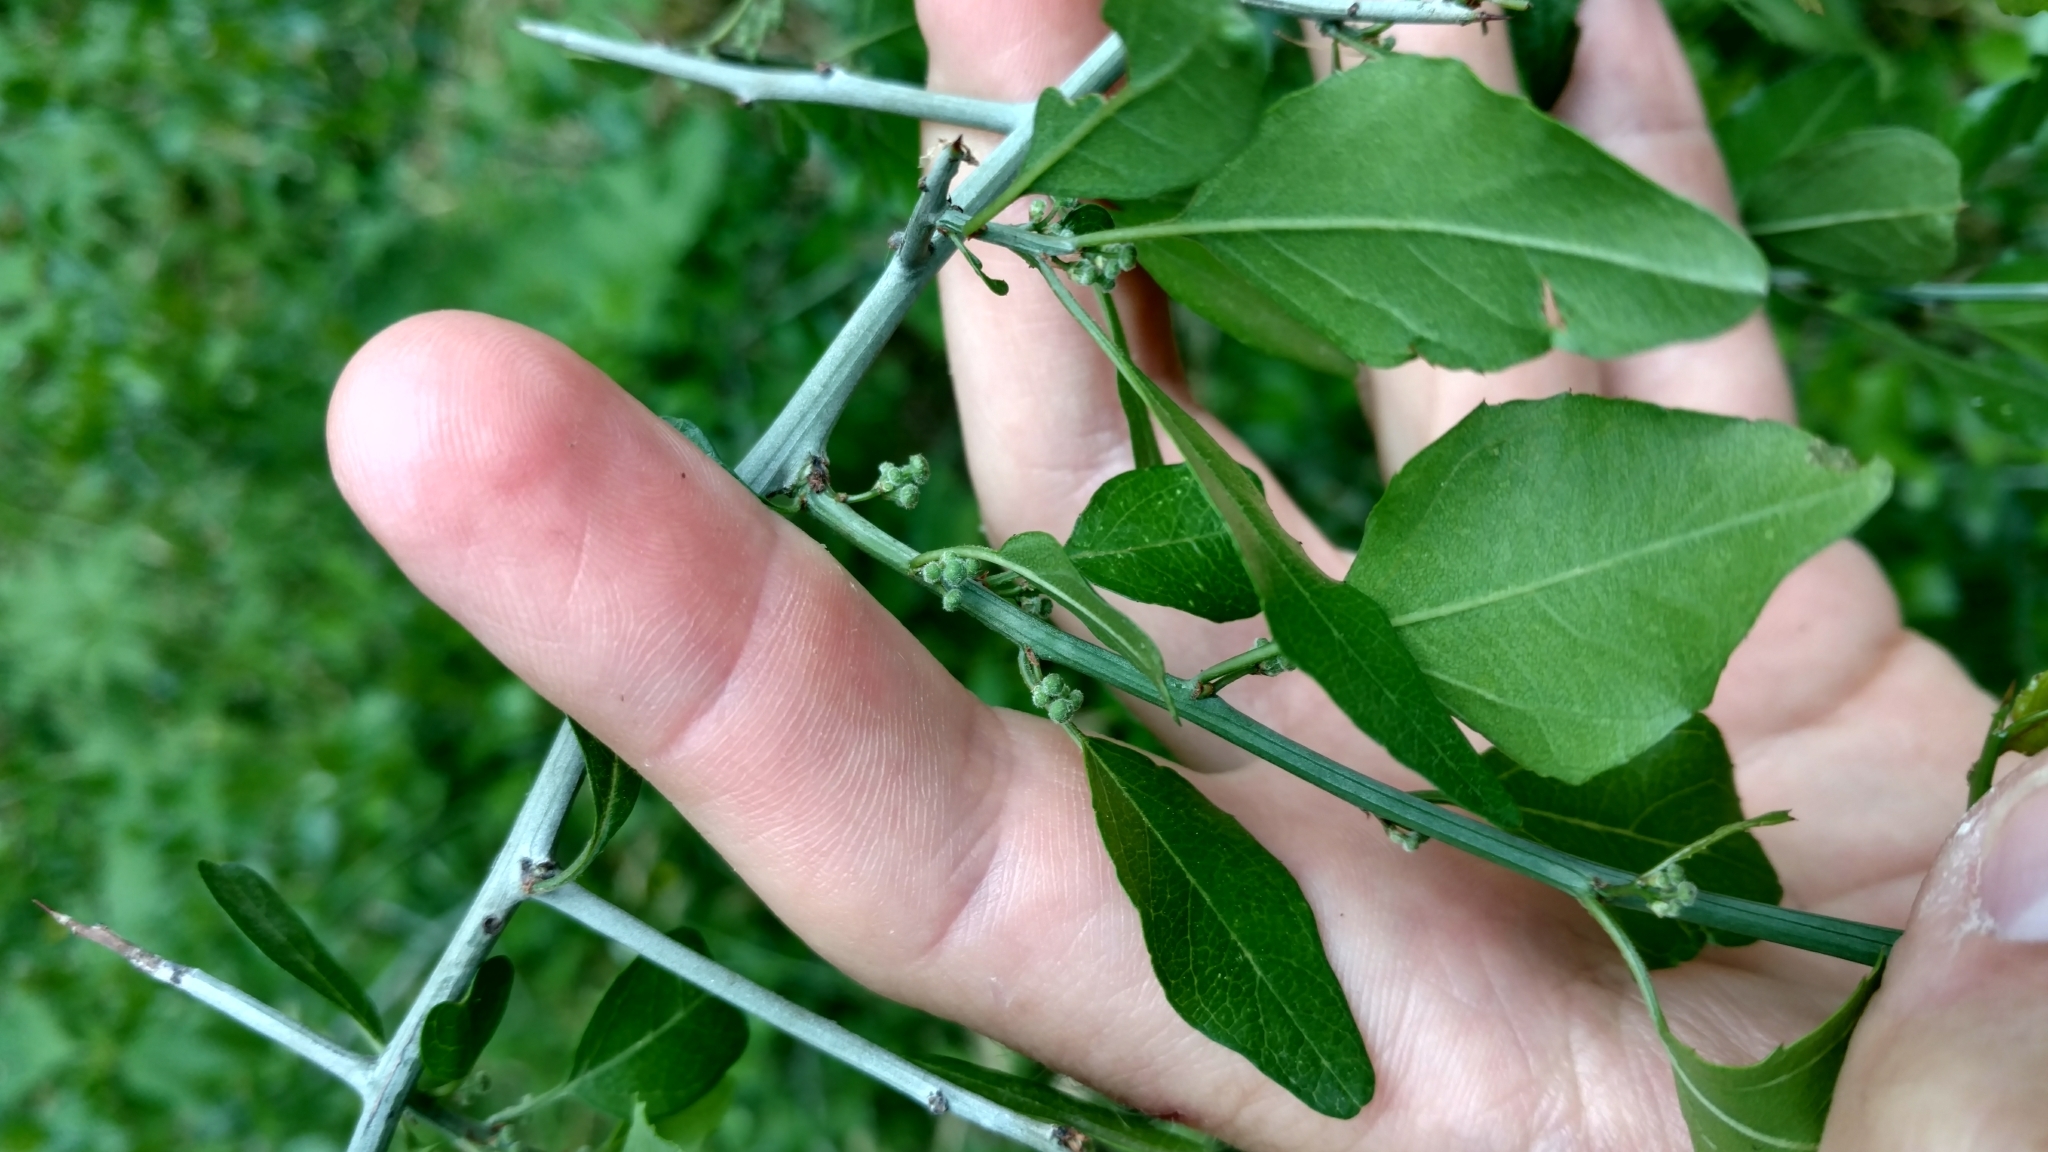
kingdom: Plantae
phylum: Tracheophyta
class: Magnoliopsida
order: Rosales
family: Rhamnaceae
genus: Sarcomphalus
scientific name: Sarcomphalus obtusifolius
